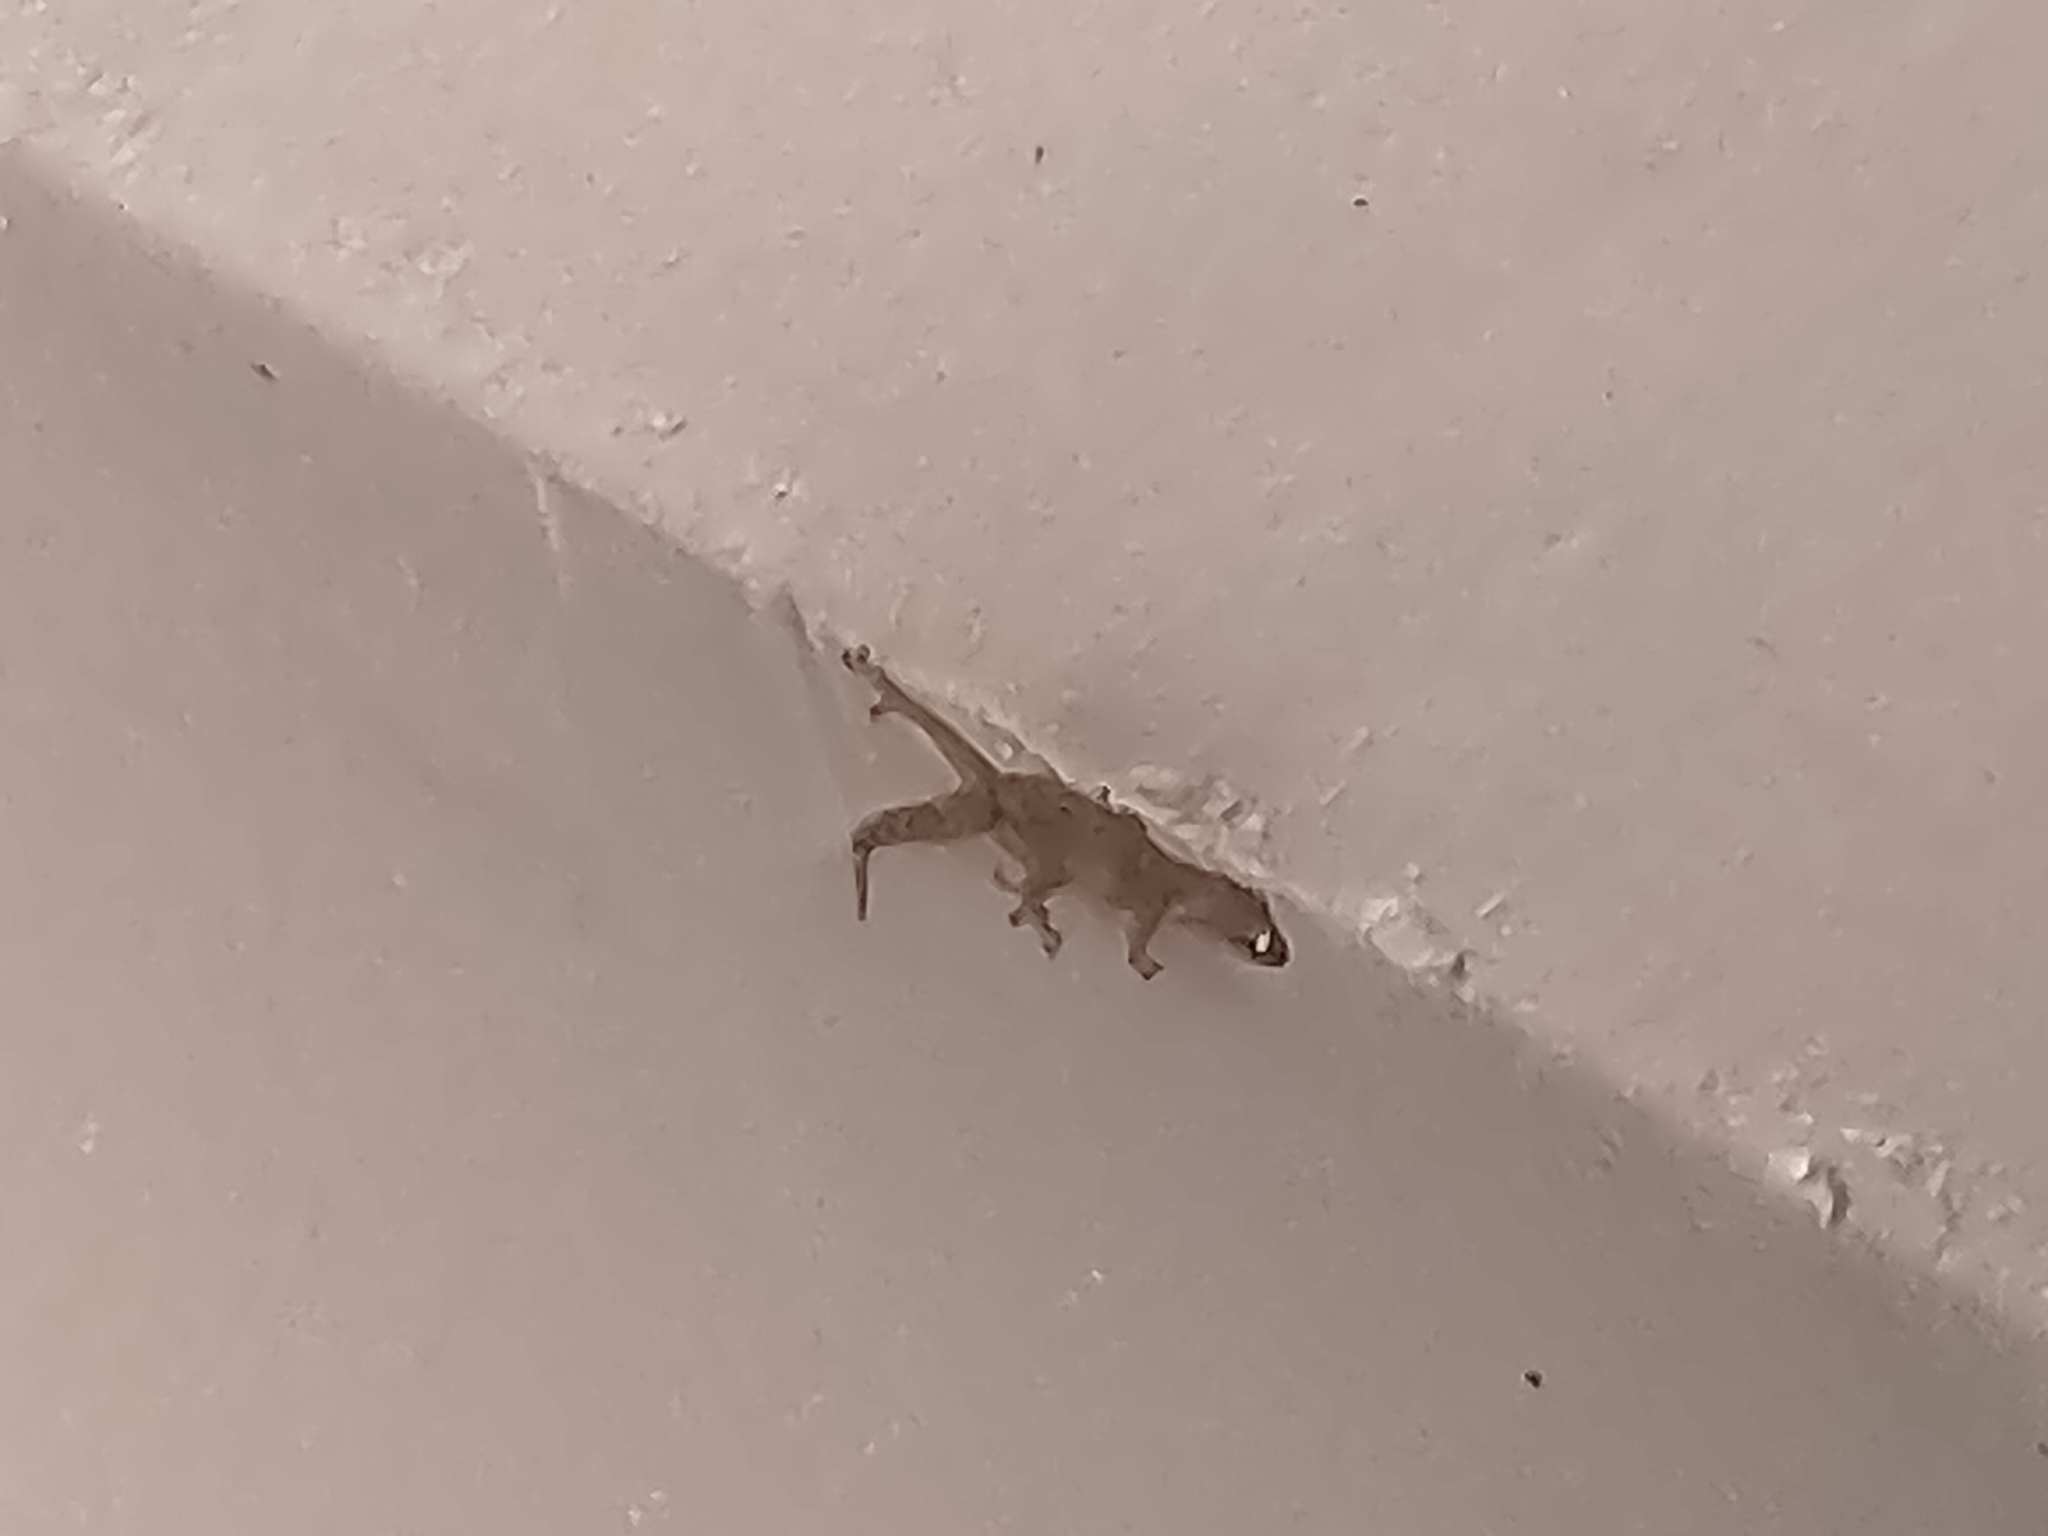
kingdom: Animalia
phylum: Chordata
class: Squamata
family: Gekkonidae
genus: Hemidactylus
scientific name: Hemidactylus mabouia
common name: House gecko
